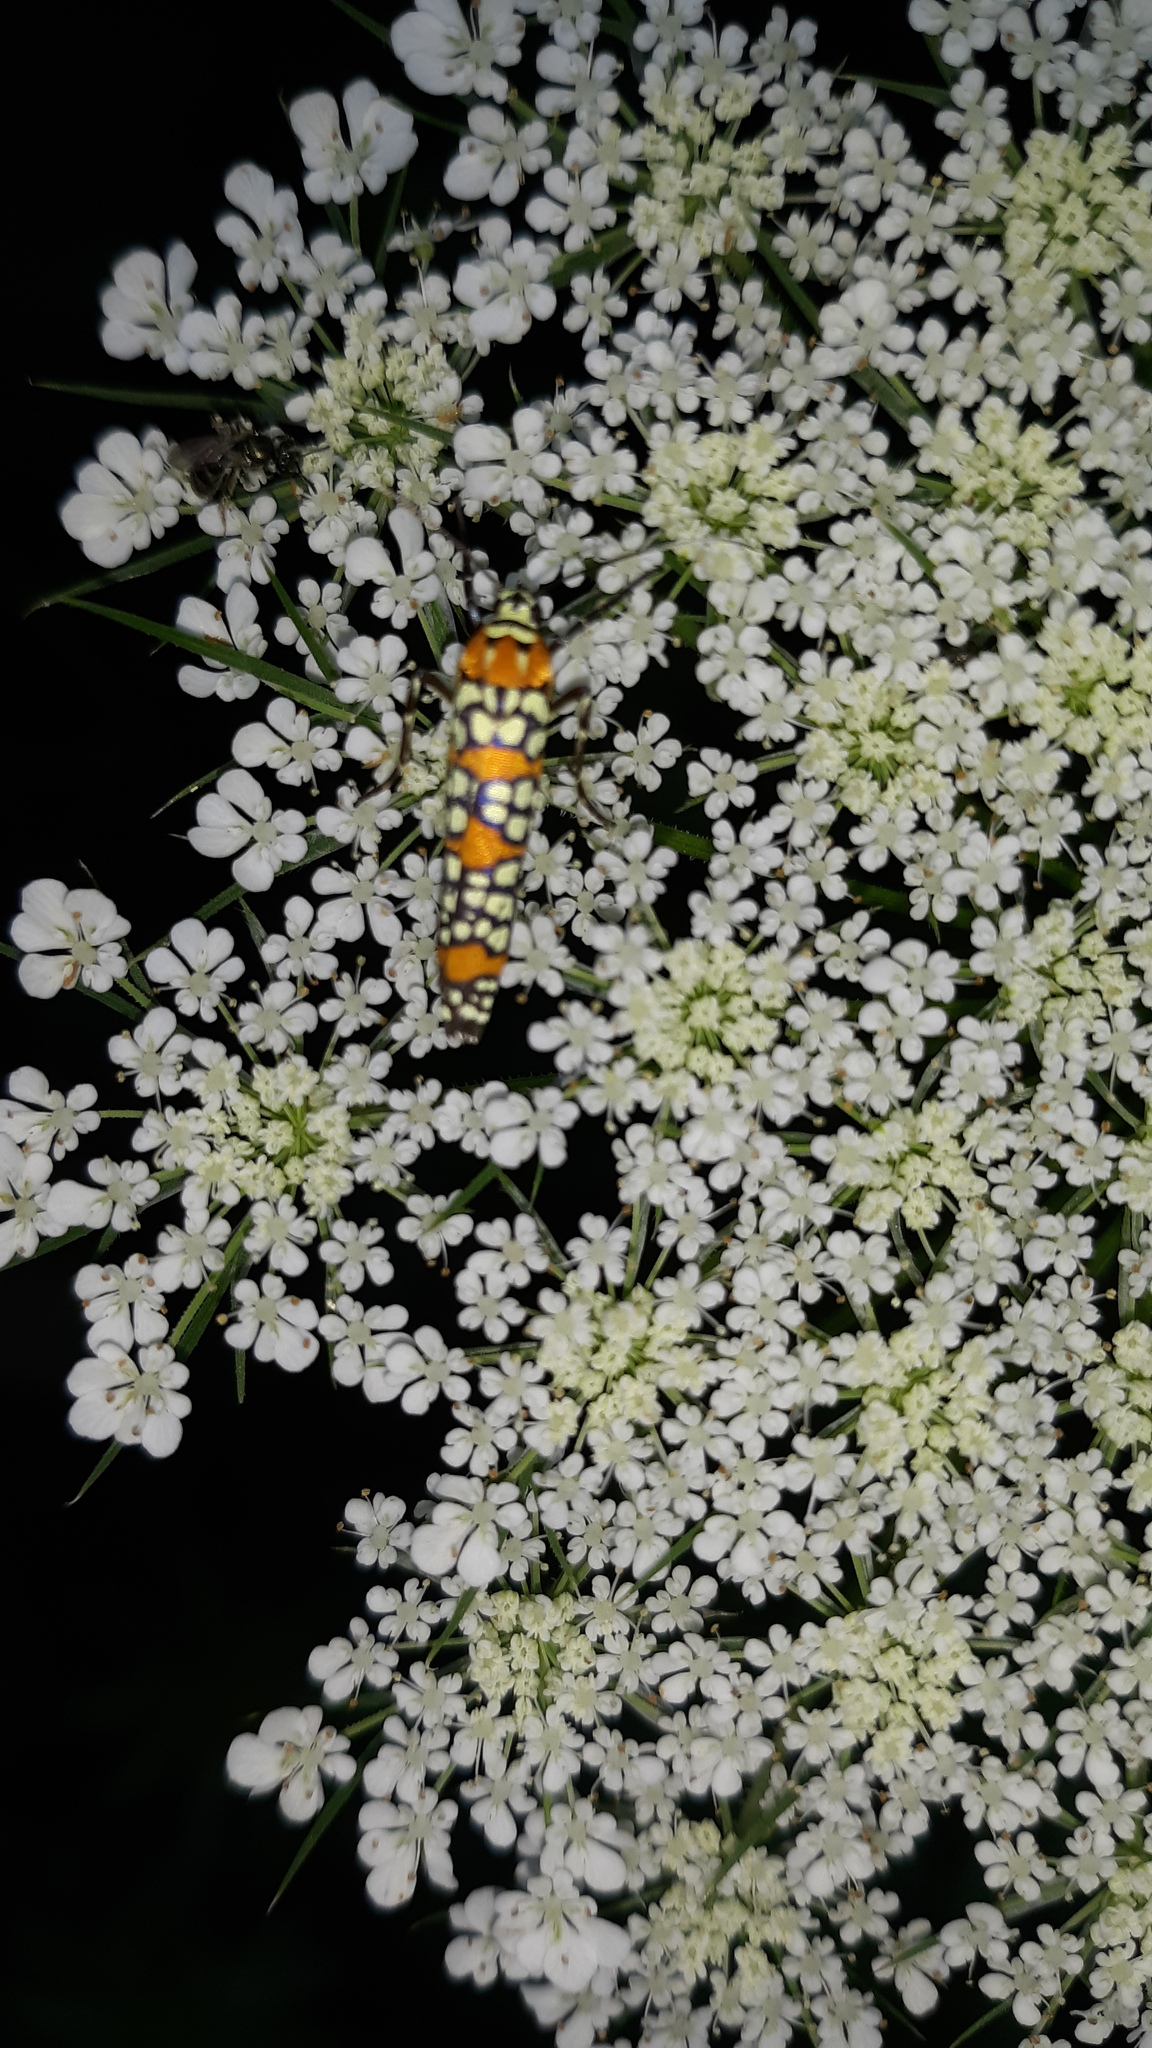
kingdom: Animalia
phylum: Arthropoda
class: Insecta
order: Lepidoptera
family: Attevidae
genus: Atteva
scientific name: Atteva punctella
